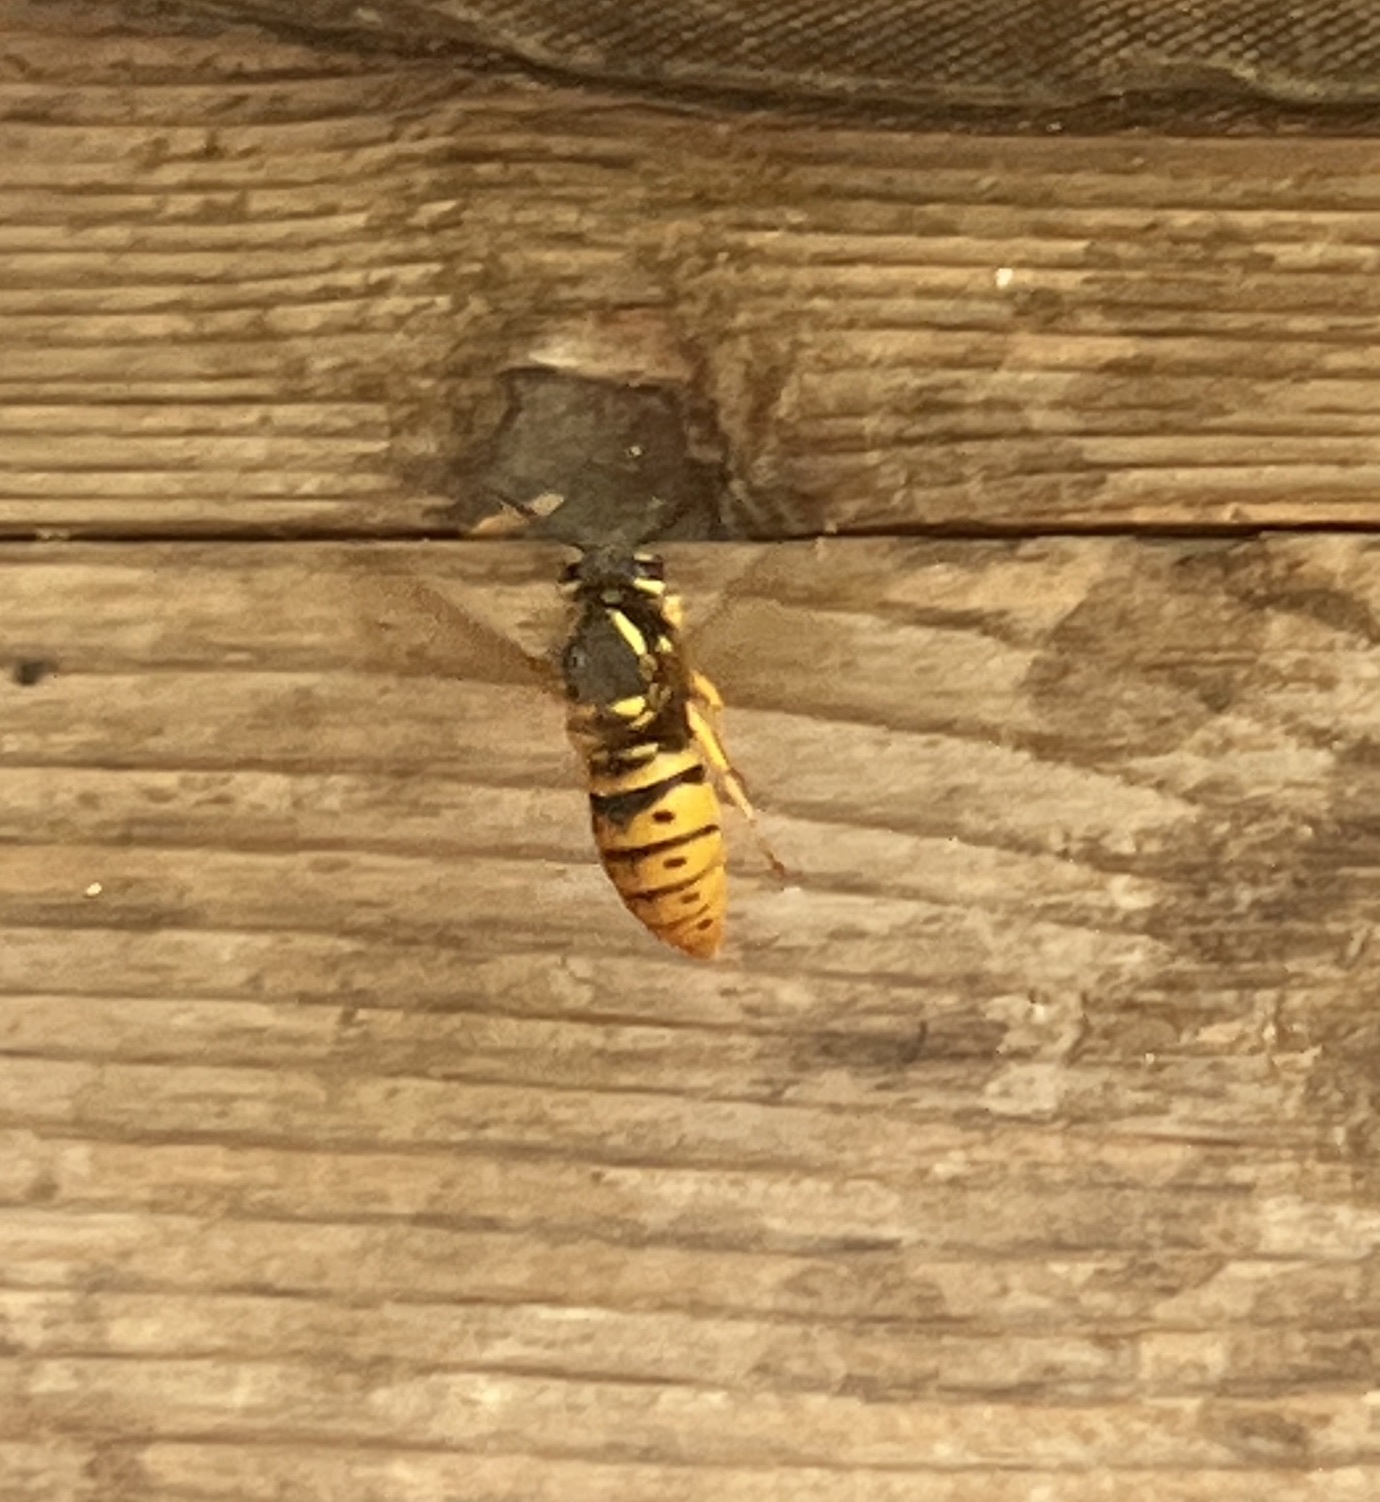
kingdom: Animalia
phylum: Arthropoda
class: Insecta
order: Hymenoptera
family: Vespidae
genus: Vespula
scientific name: Vespula maculifrons
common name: Eastern yellowjacket
